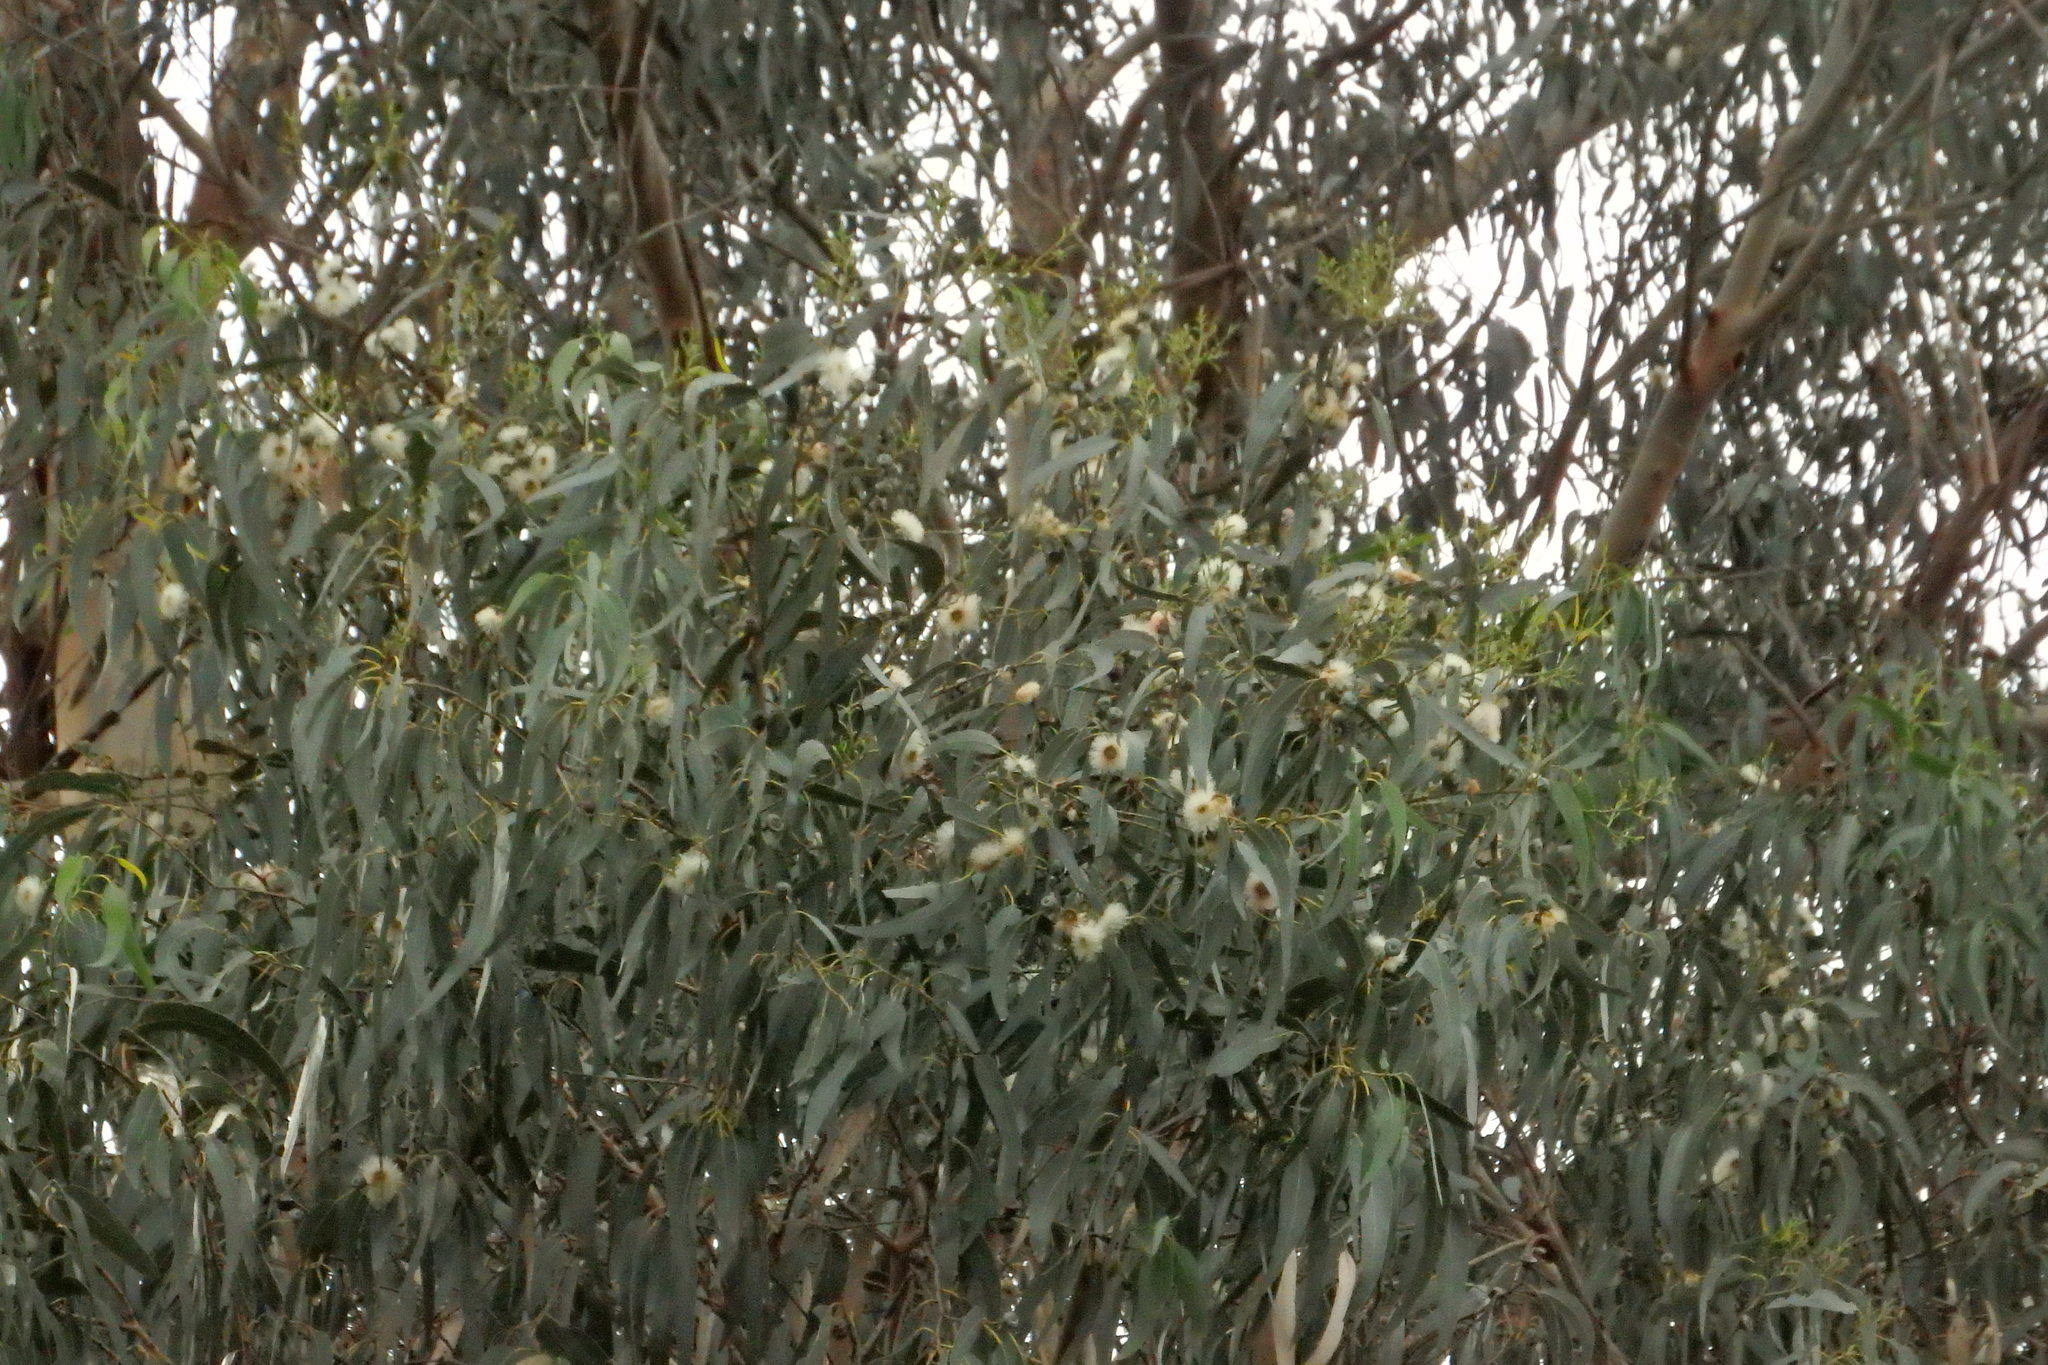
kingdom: Plantae
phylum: Tracheophyta
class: Magnoliopsida
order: Myrtales
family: Myrtaceae
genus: Eucalyptus
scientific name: Eucalyptus globulus
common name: Southern blue-gum
